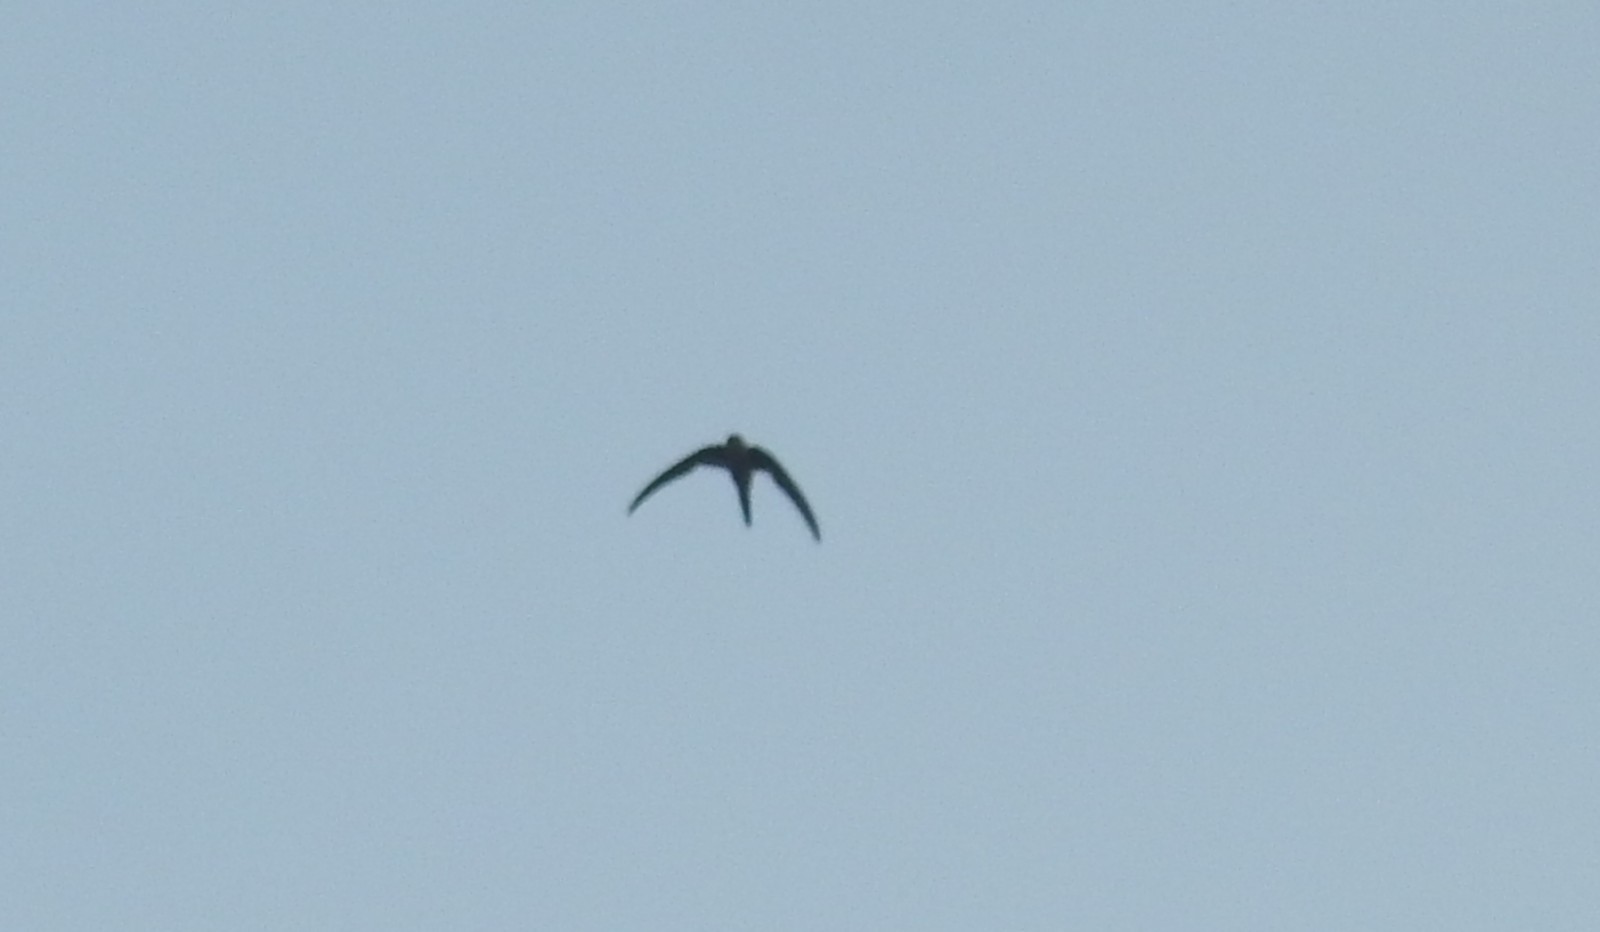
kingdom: Animalia
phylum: Chordata
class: Aves
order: Apodiformes
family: Apodidae
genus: Cypsiurus
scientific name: Cypsiurus balasiensis
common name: Asian palm swift
